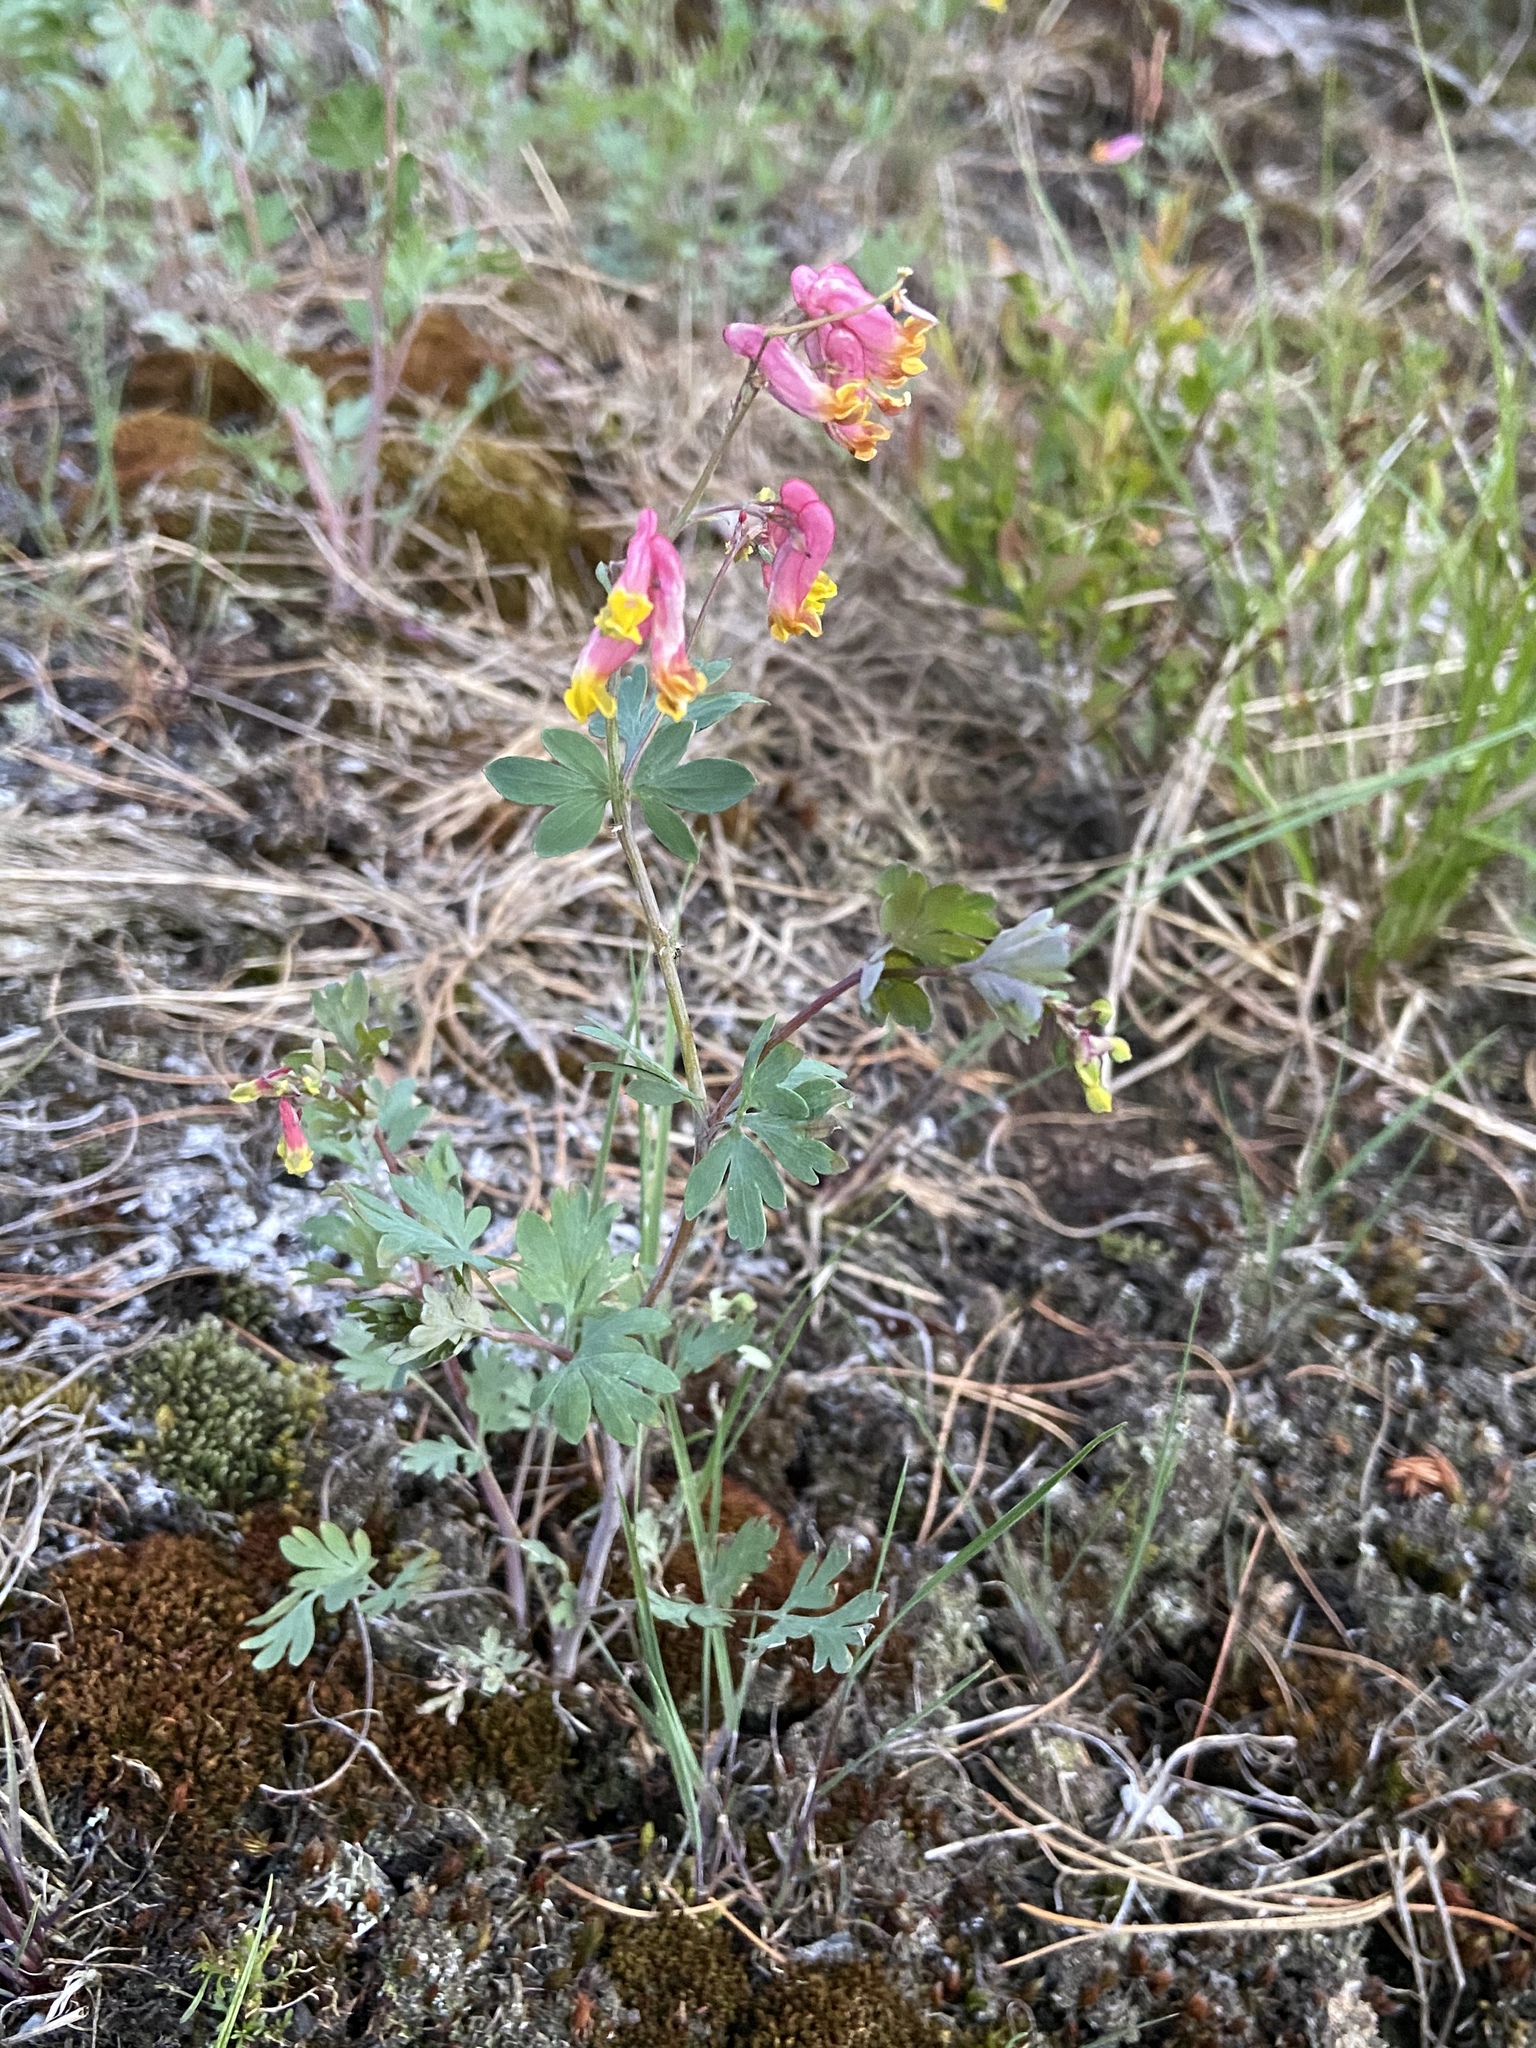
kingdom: Plantae
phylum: Tracheophyta
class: Magnoliopsida
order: Ranunculales
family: Papaveraceae
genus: Capnoides
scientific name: Capnoides sempervirens
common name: Rock harlequin
